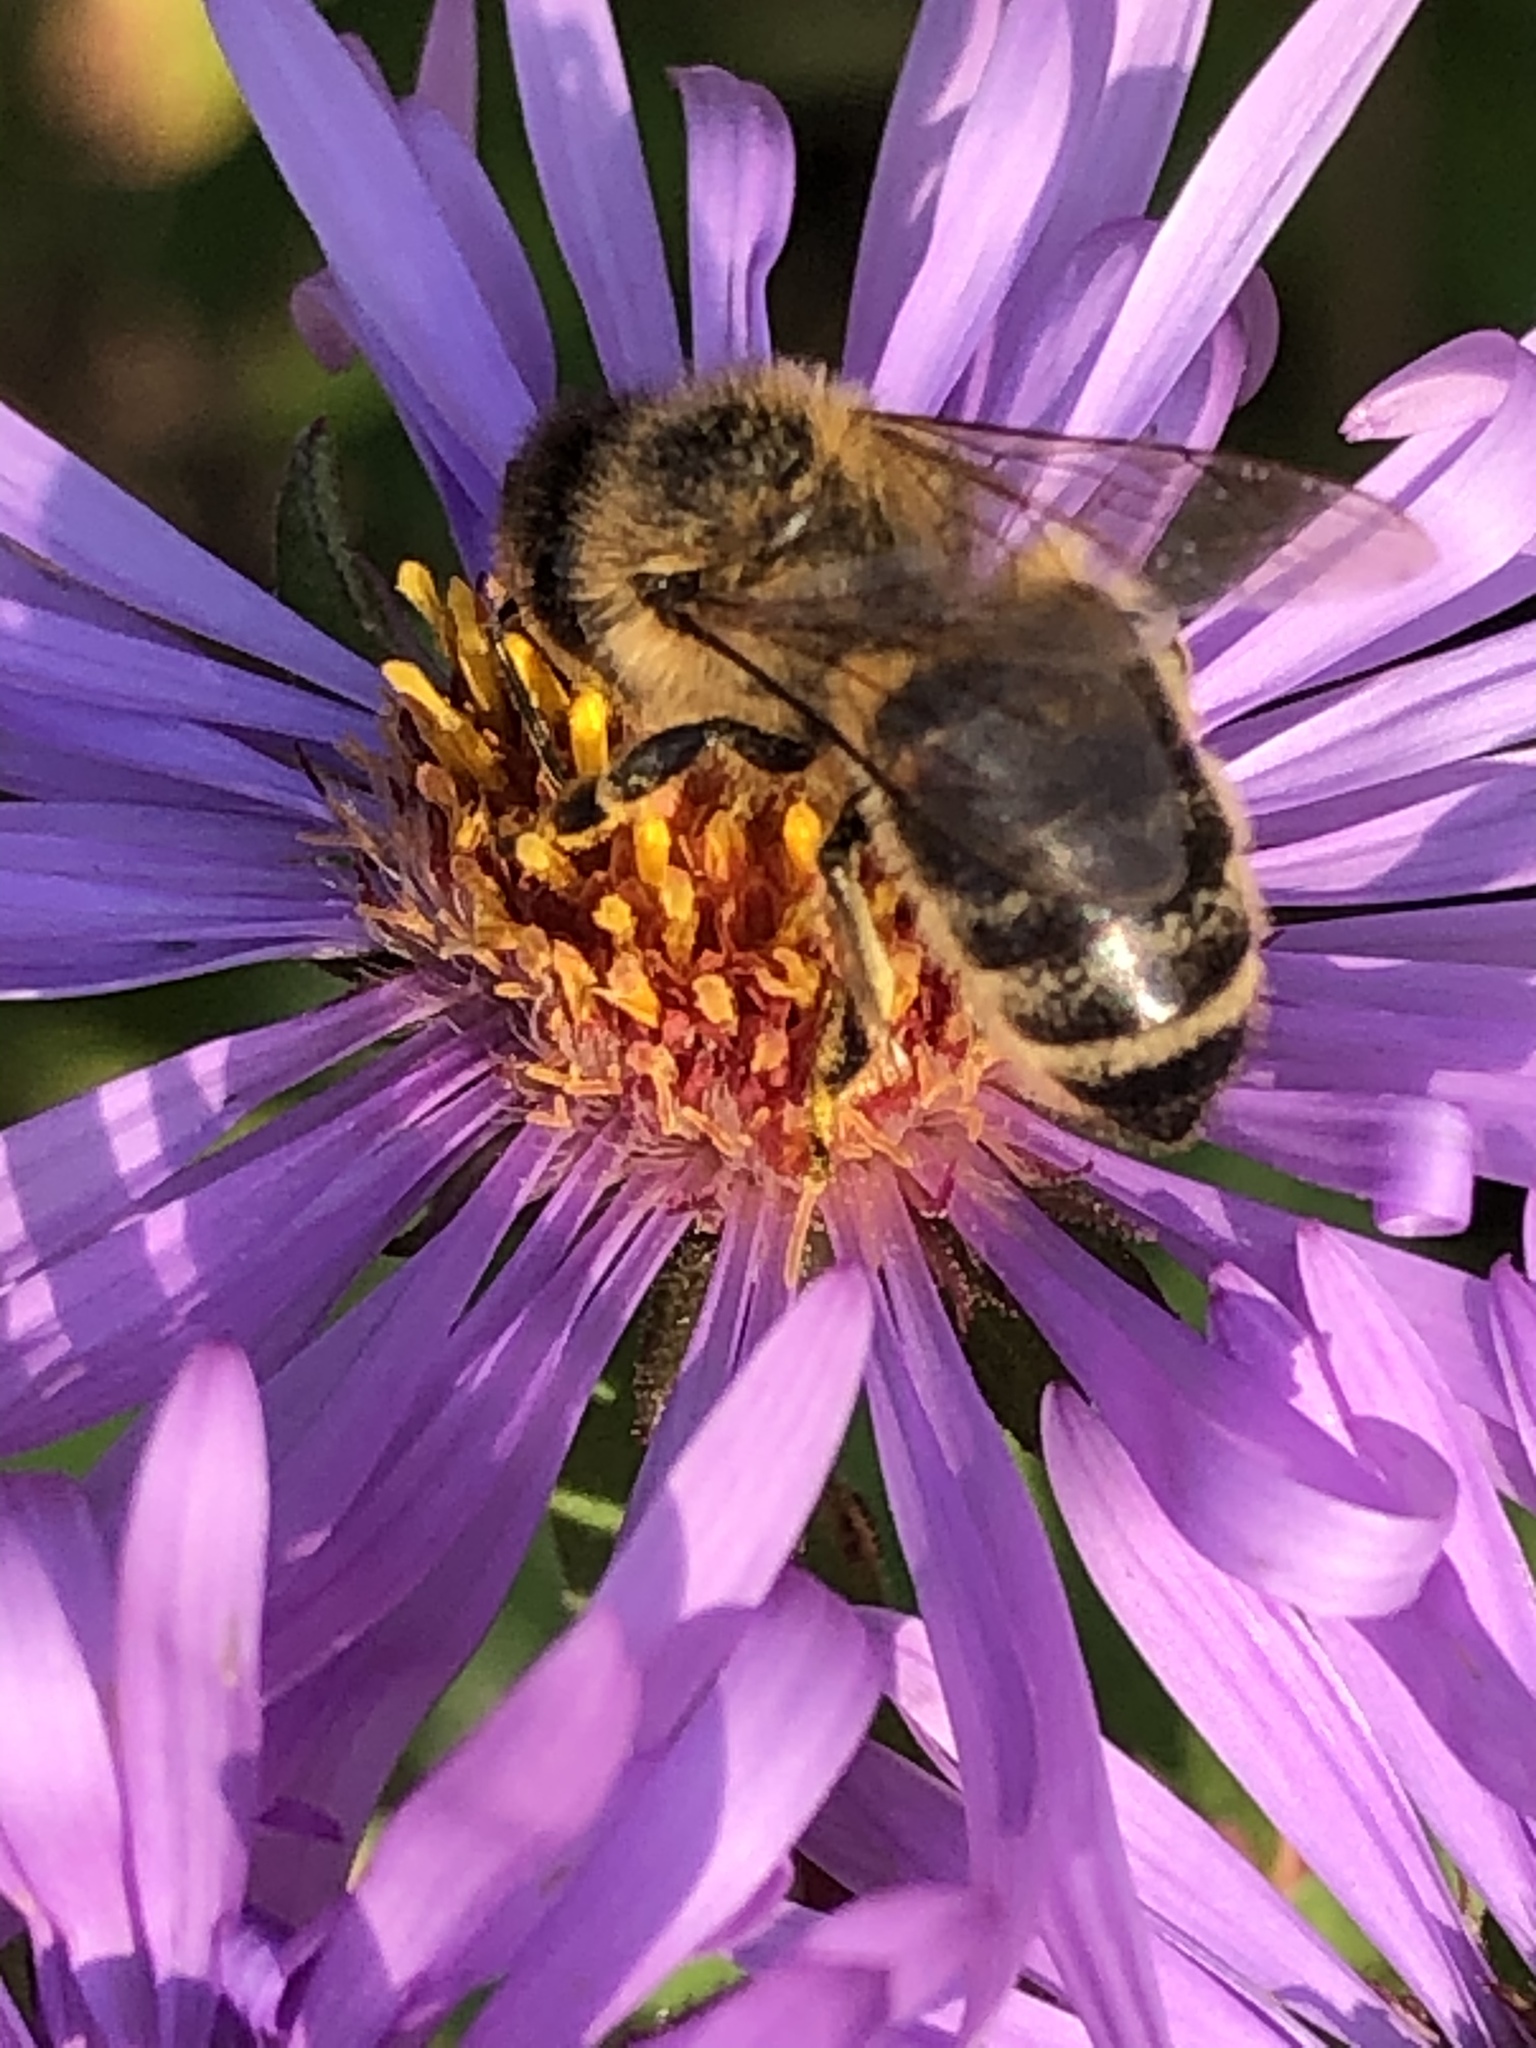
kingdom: Animalia
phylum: Arthropoda
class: Insecta
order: Hymenoptera
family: Apidae
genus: Apis
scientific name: Apis mellifera
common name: Honey bee
